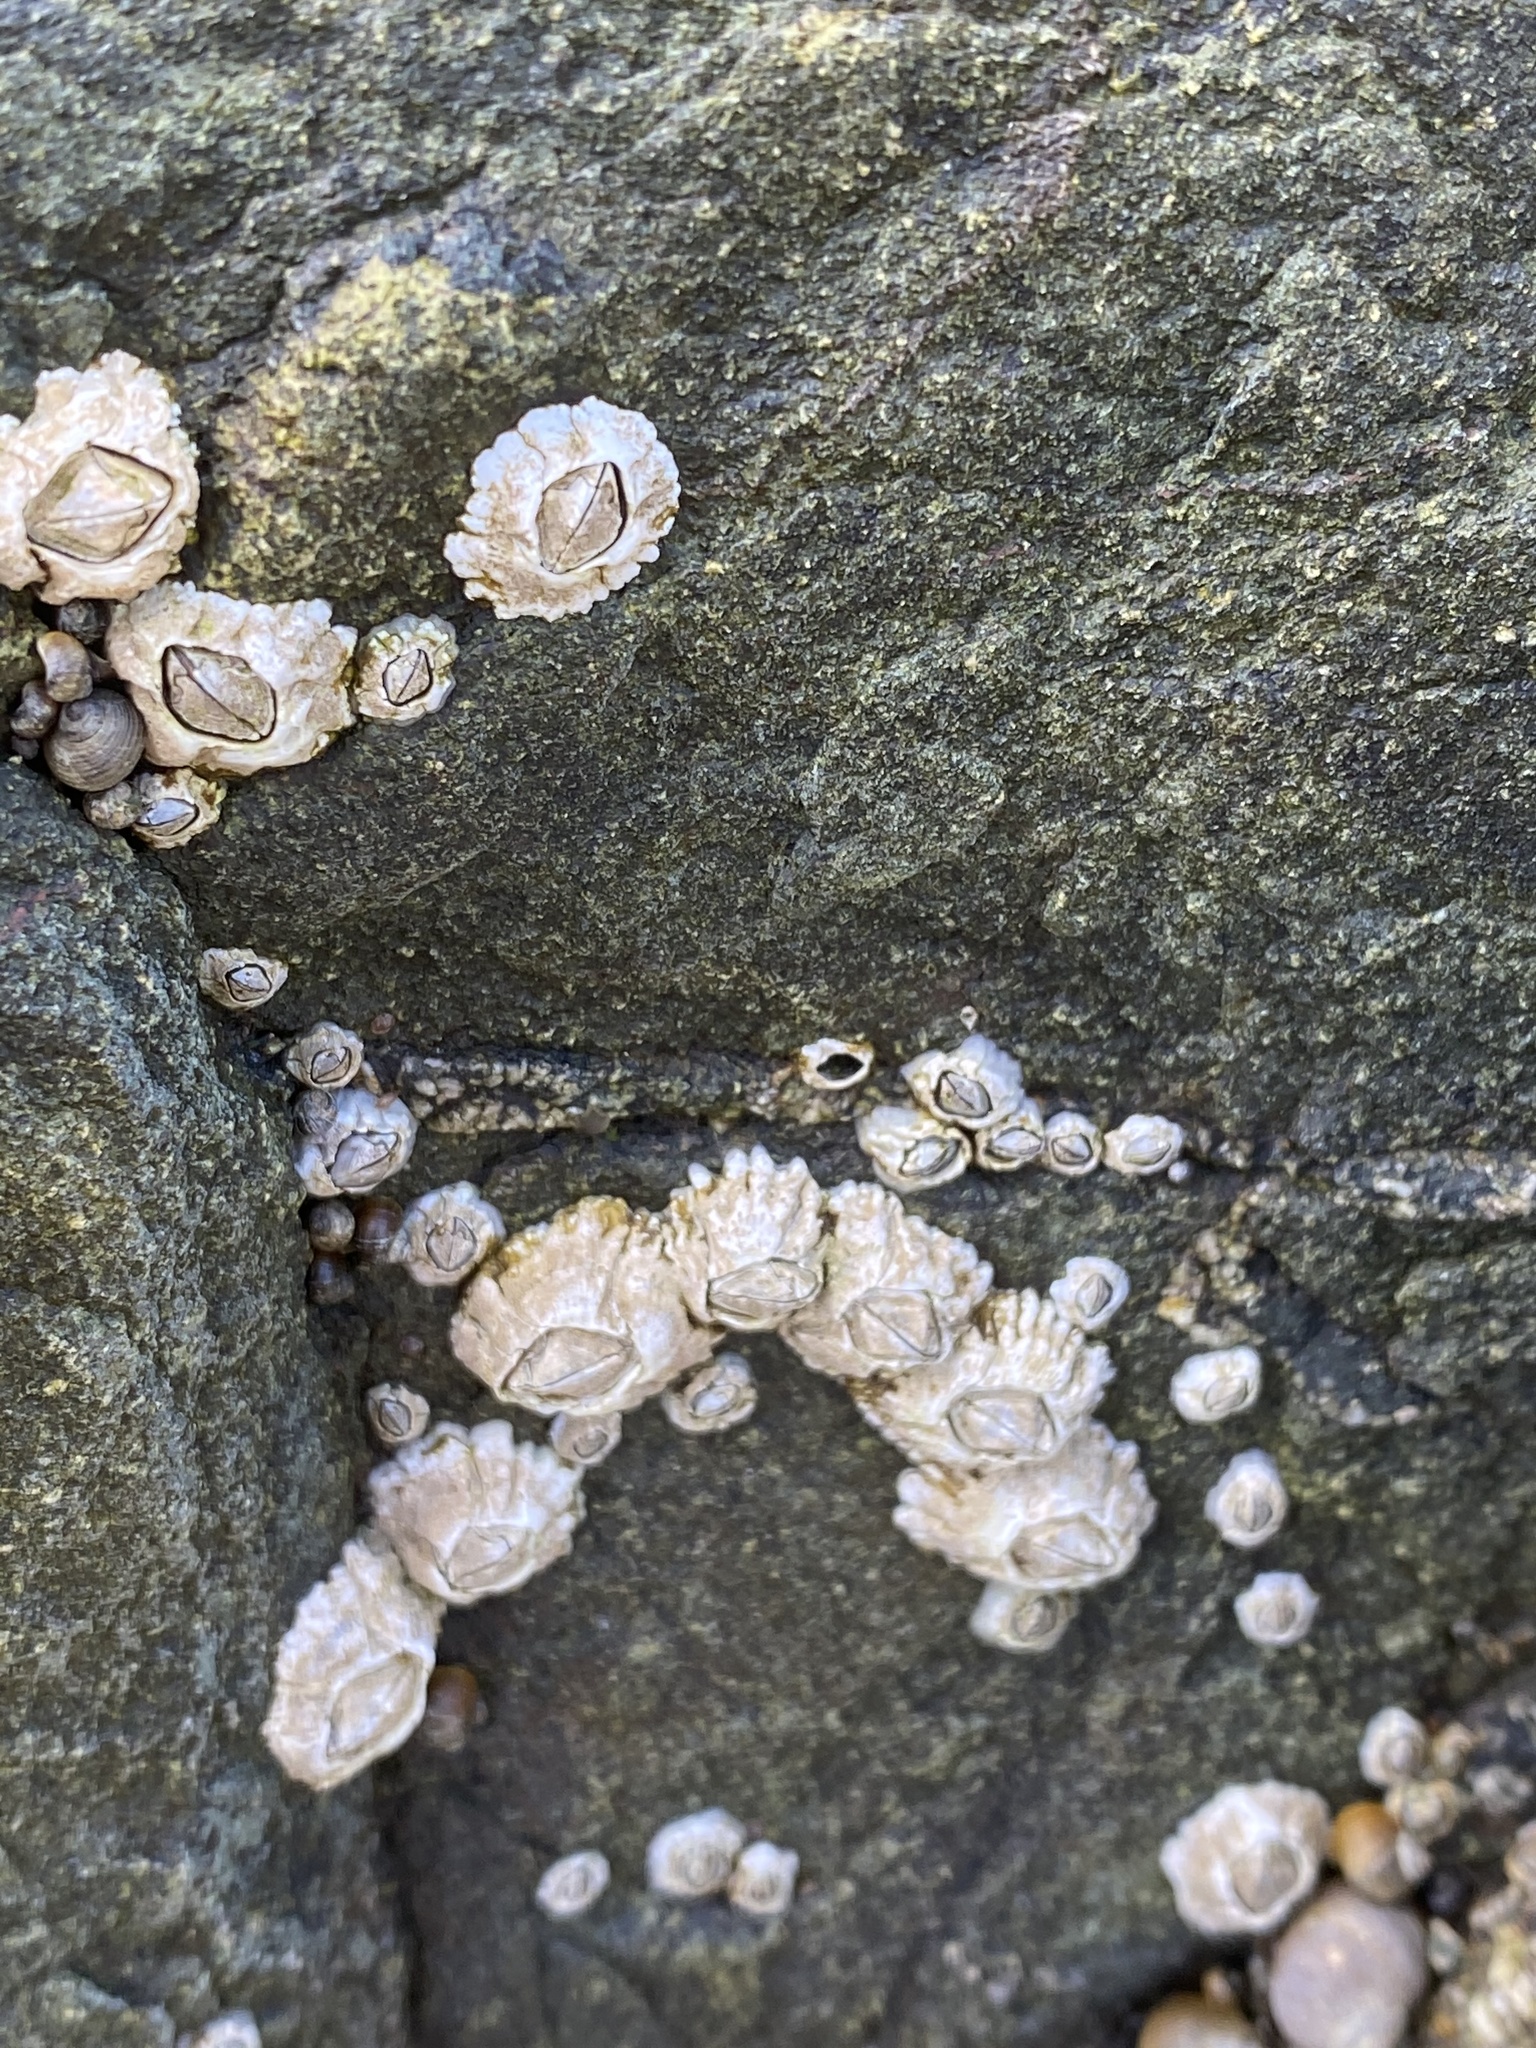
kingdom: Animalia
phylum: Arthropoda
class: Maxillopoda
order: Sessilia
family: Archaeobalanidae
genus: Semibalanus
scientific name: Semibalanus balanoides
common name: Acorn barnacle
